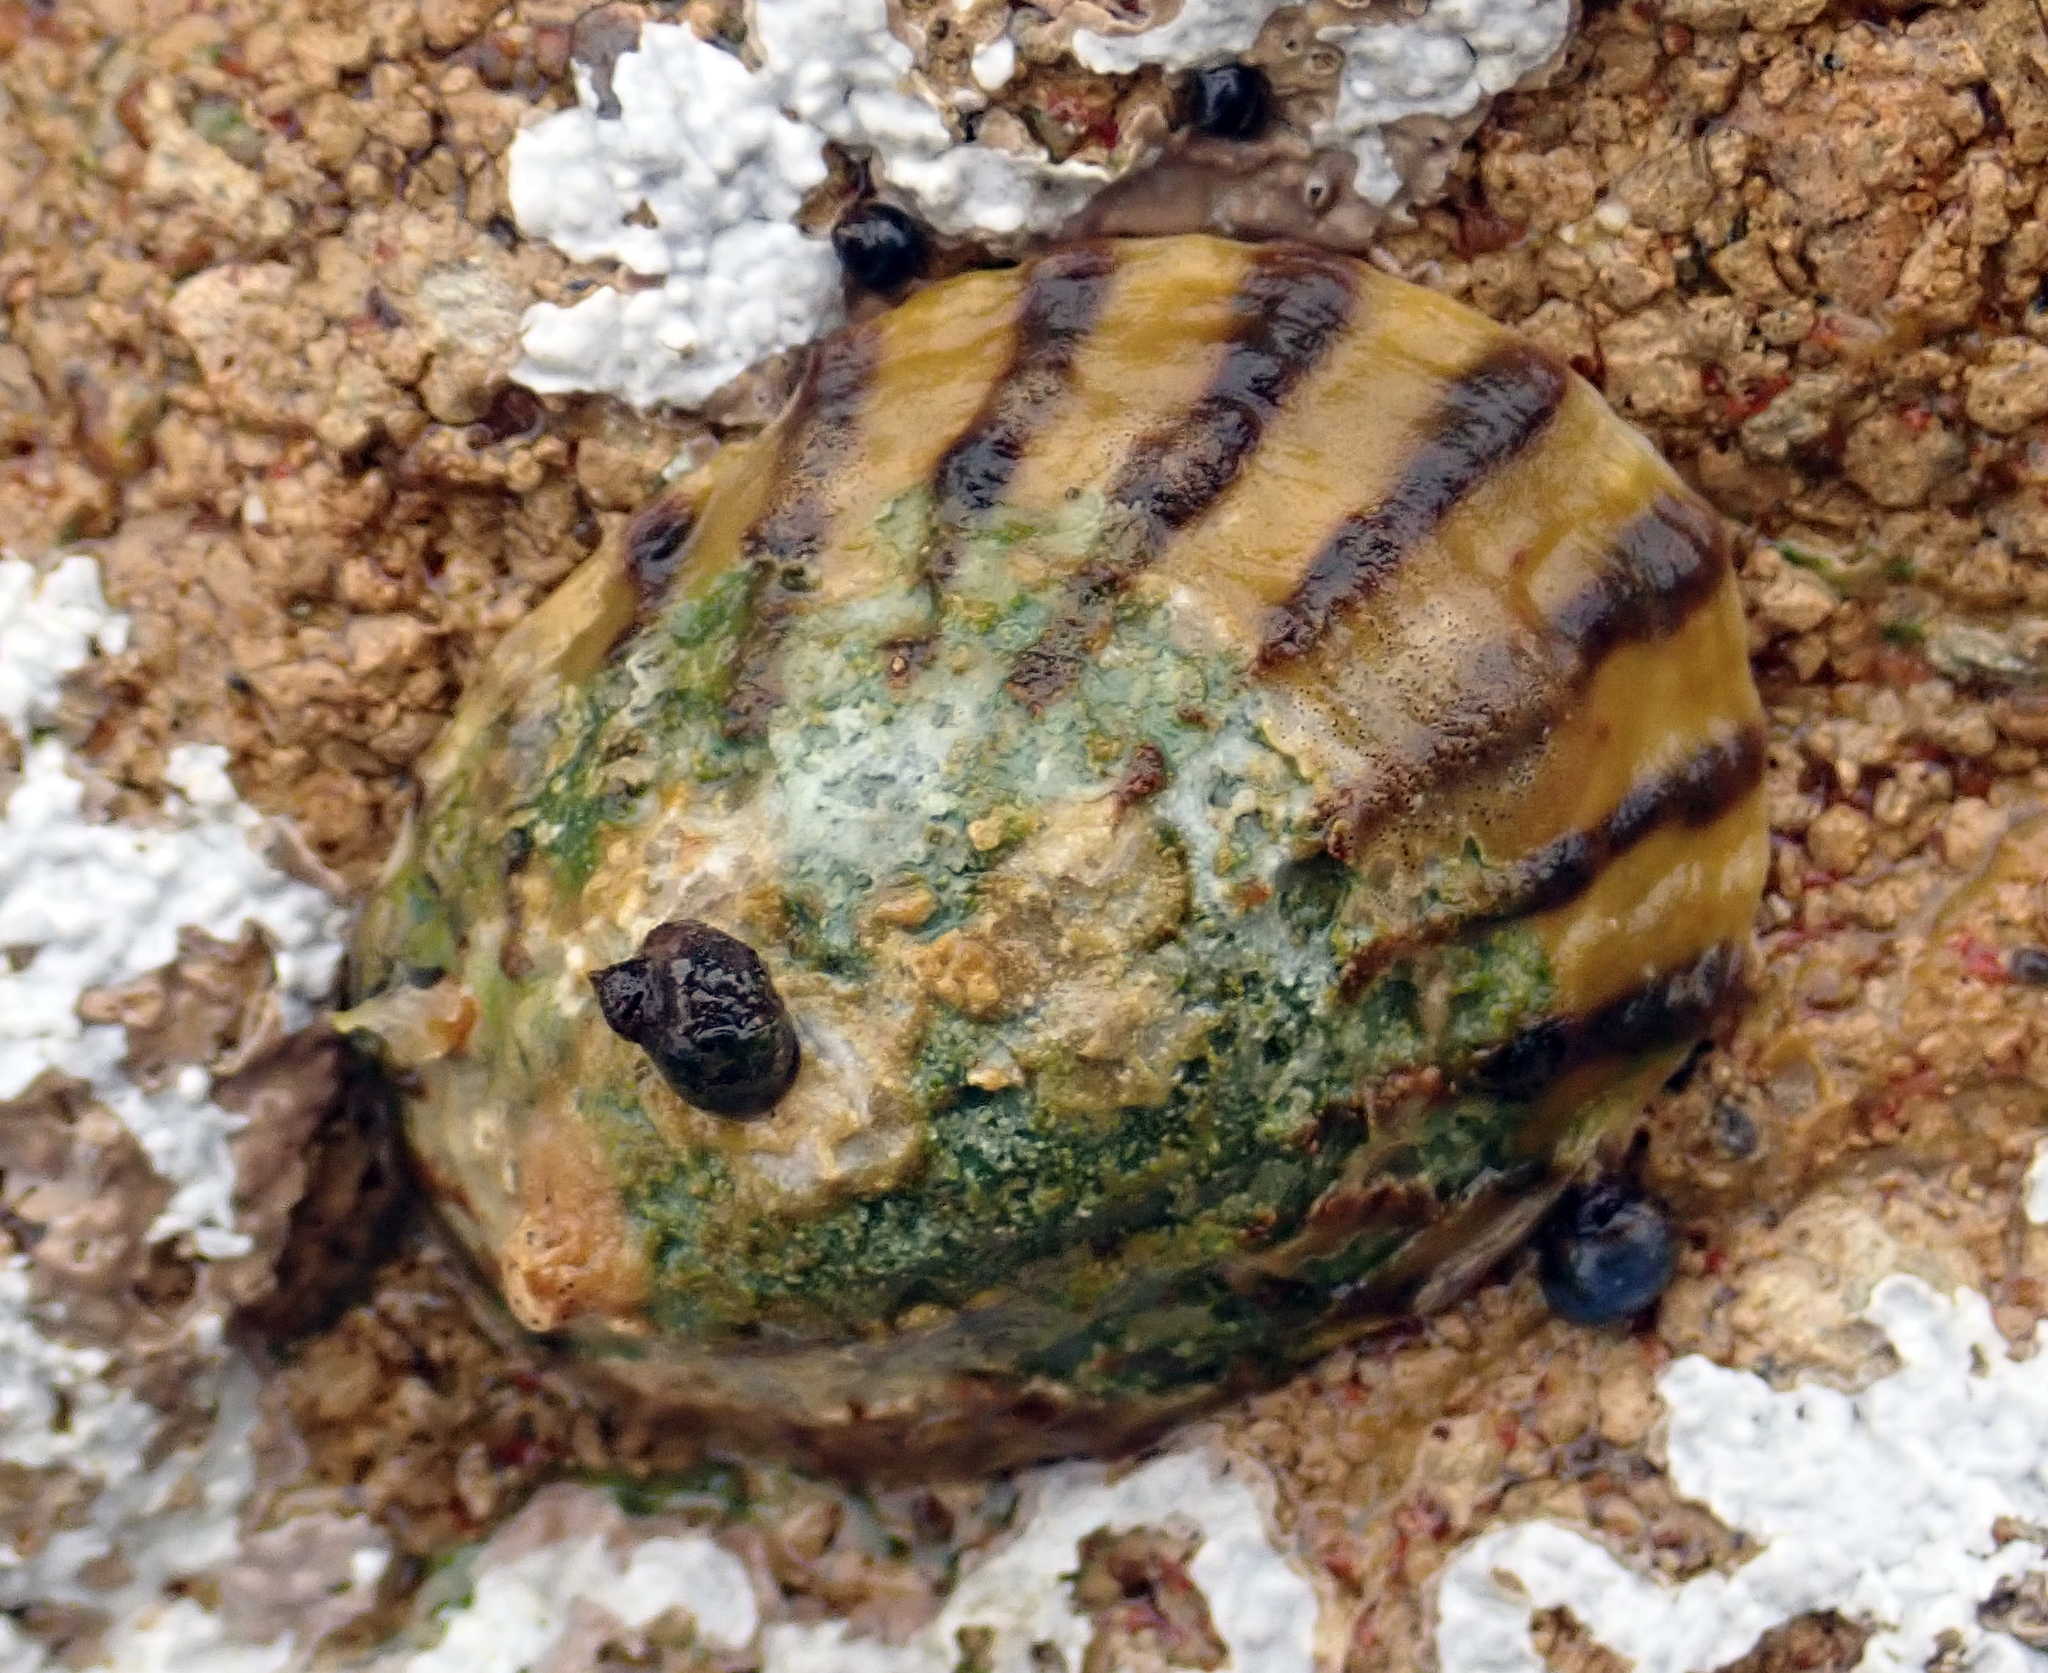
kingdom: Animalia
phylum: Mollusca
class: Gastropoda
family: Nacellidae
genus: Cellana
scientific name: Cellana oliveri
